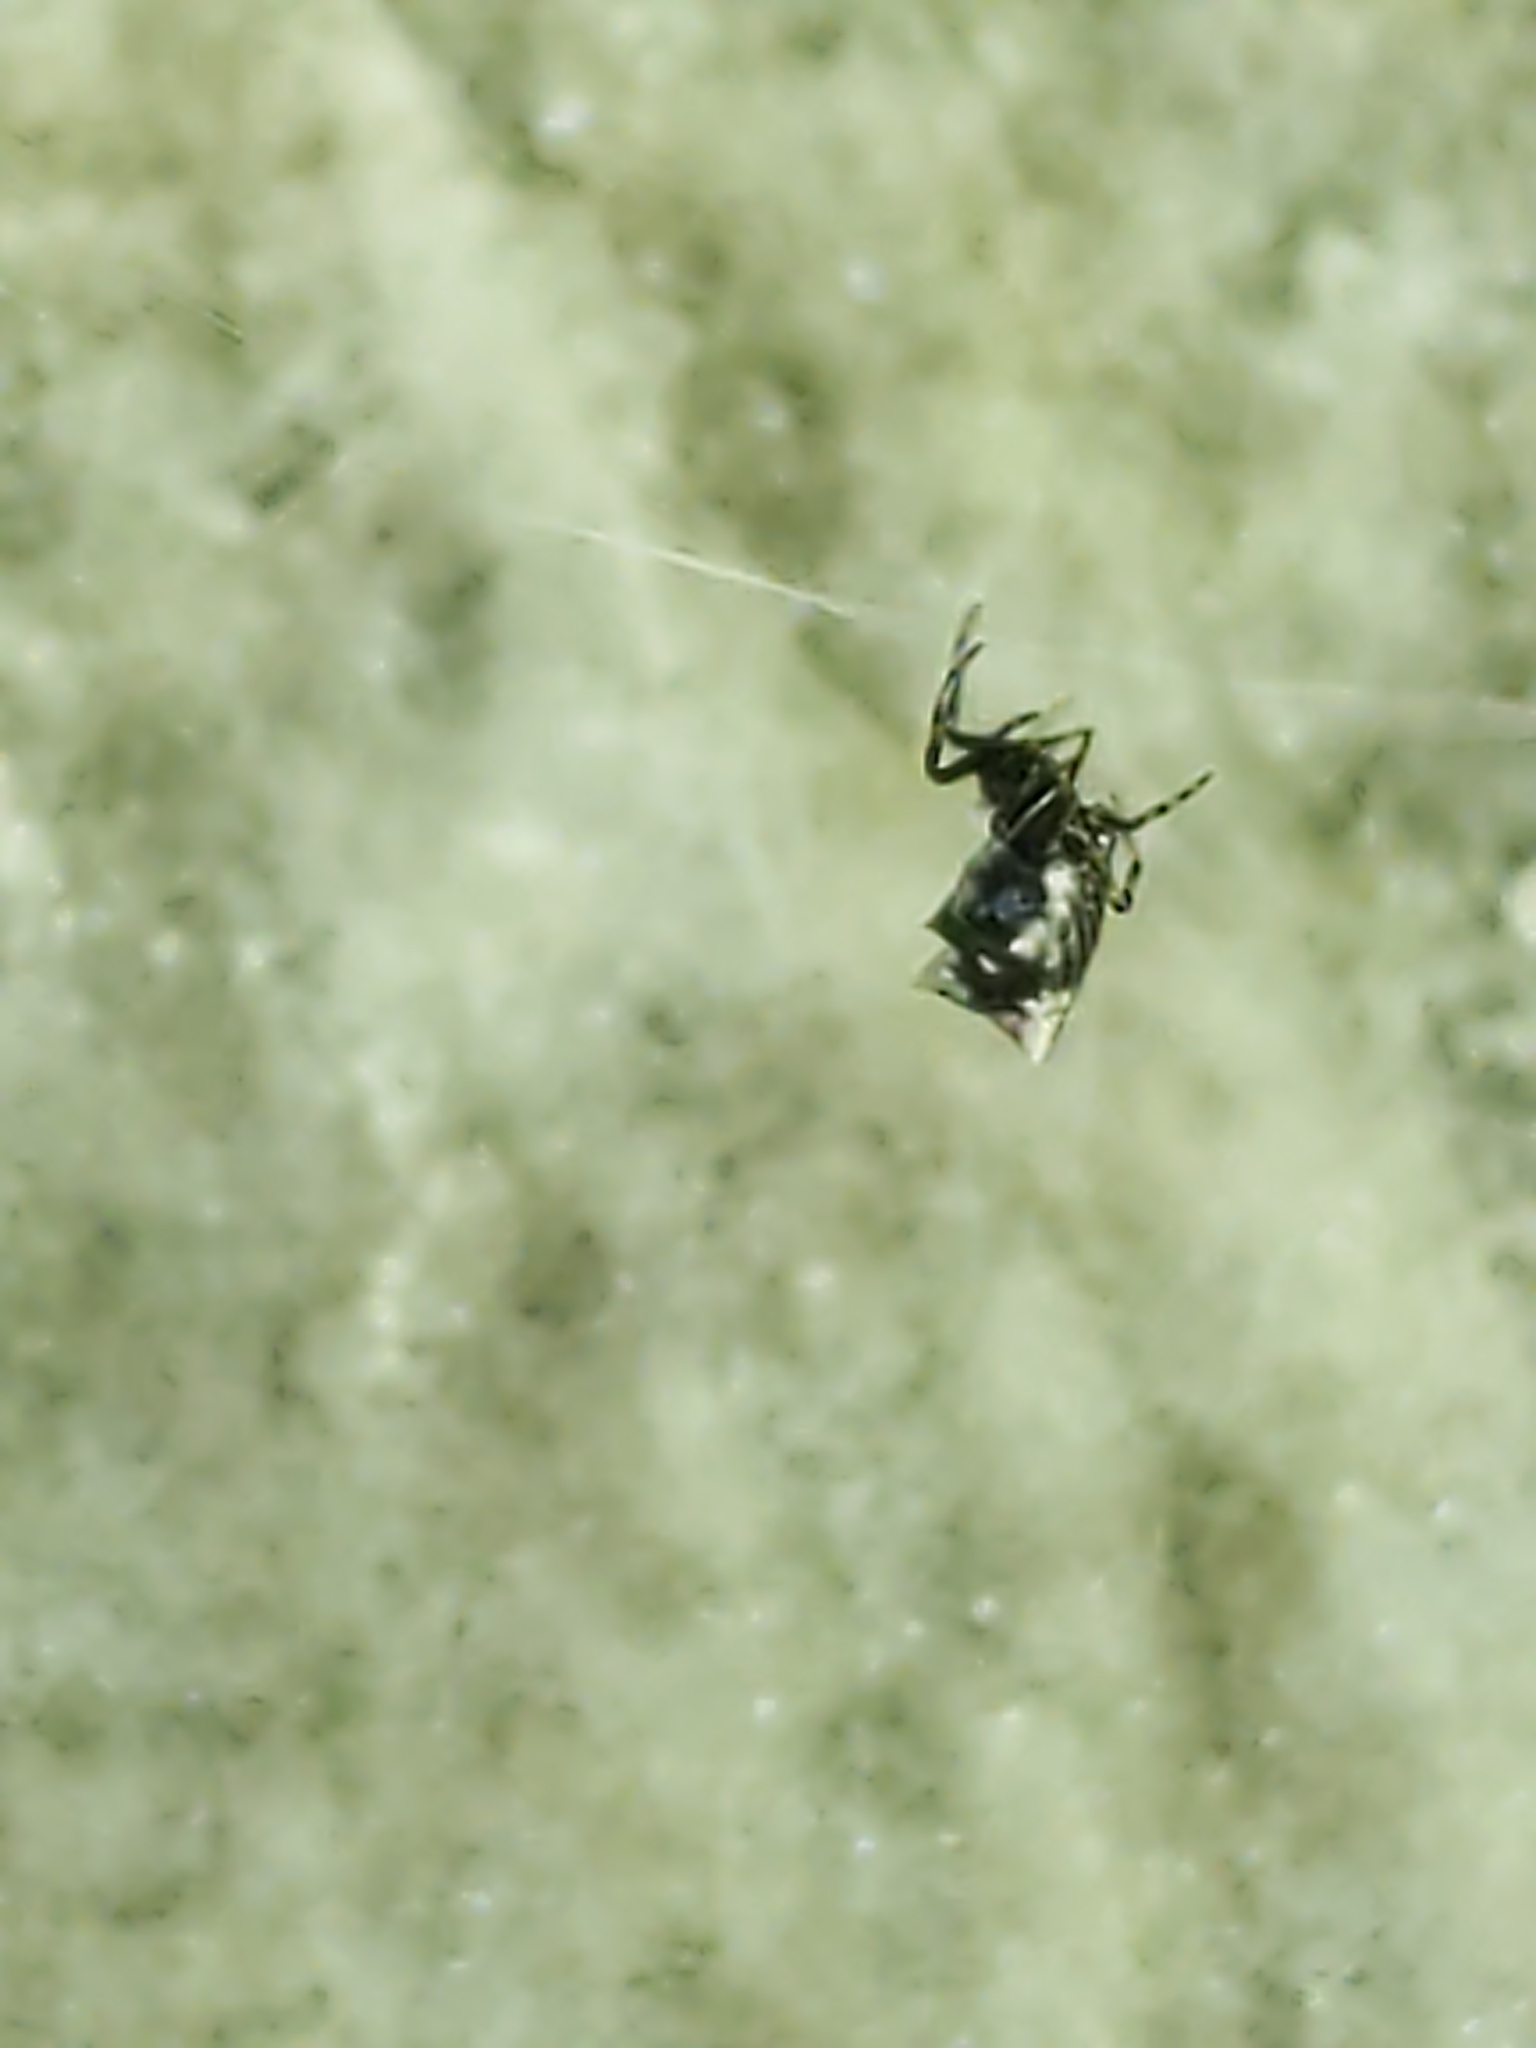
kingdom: Animalia
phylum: Arthropoda
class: Arachnida
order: Araneae
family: Araneidae
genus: Micrathena
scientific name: Micrathena gracilis
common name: Orb weavers
